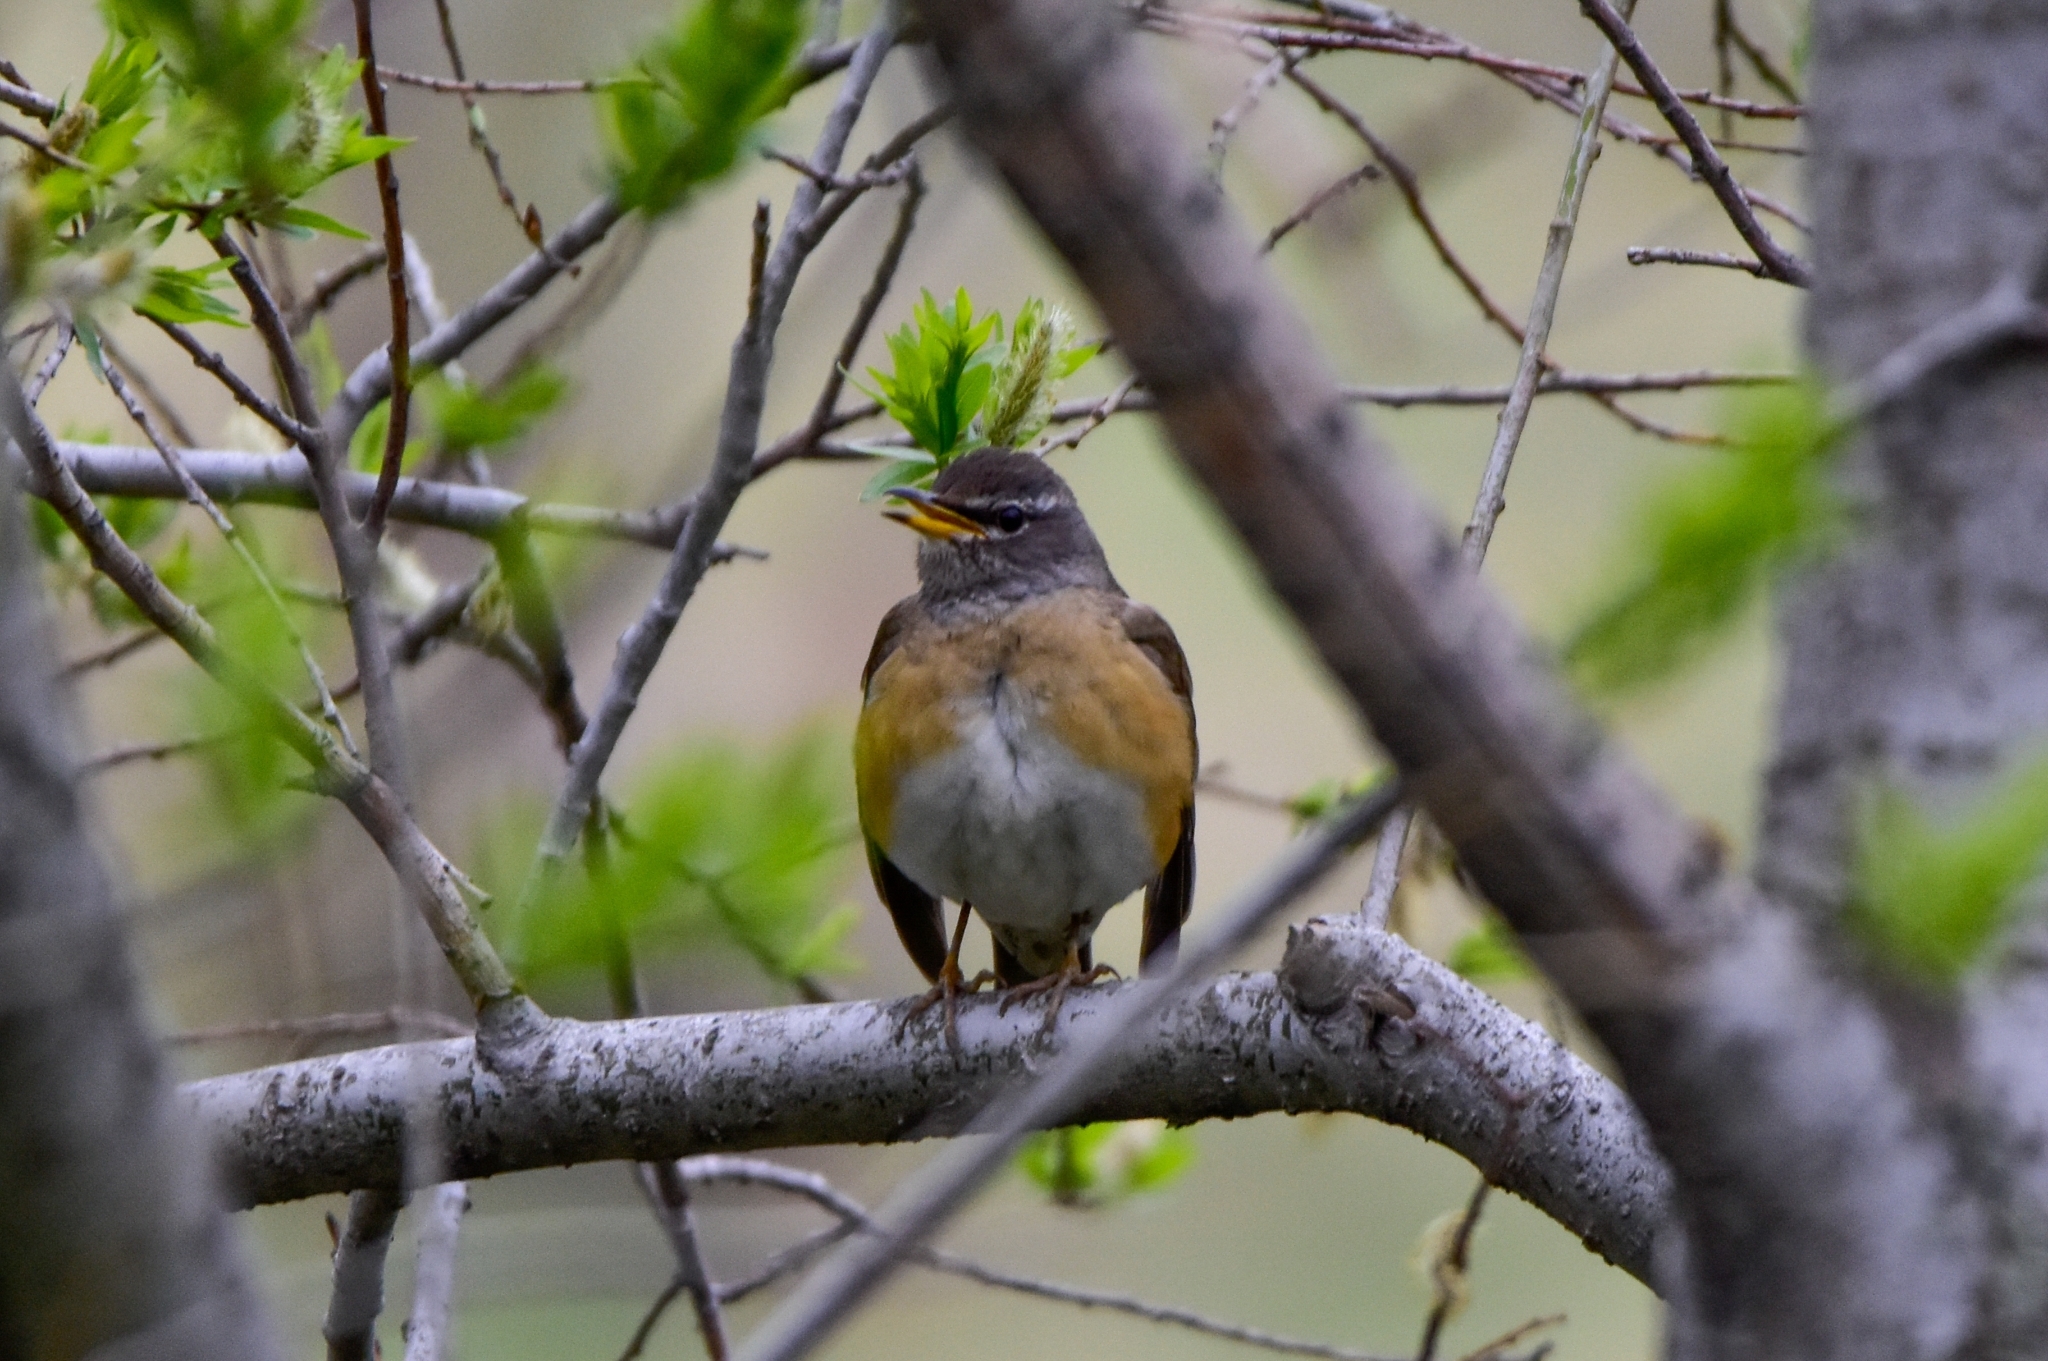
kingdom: Animalia
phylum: Chordata
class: Aves
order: Passeriformes
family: Turdidae
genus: Turdus
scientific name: Turdus obscurus
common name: Eyebrowed thrush
